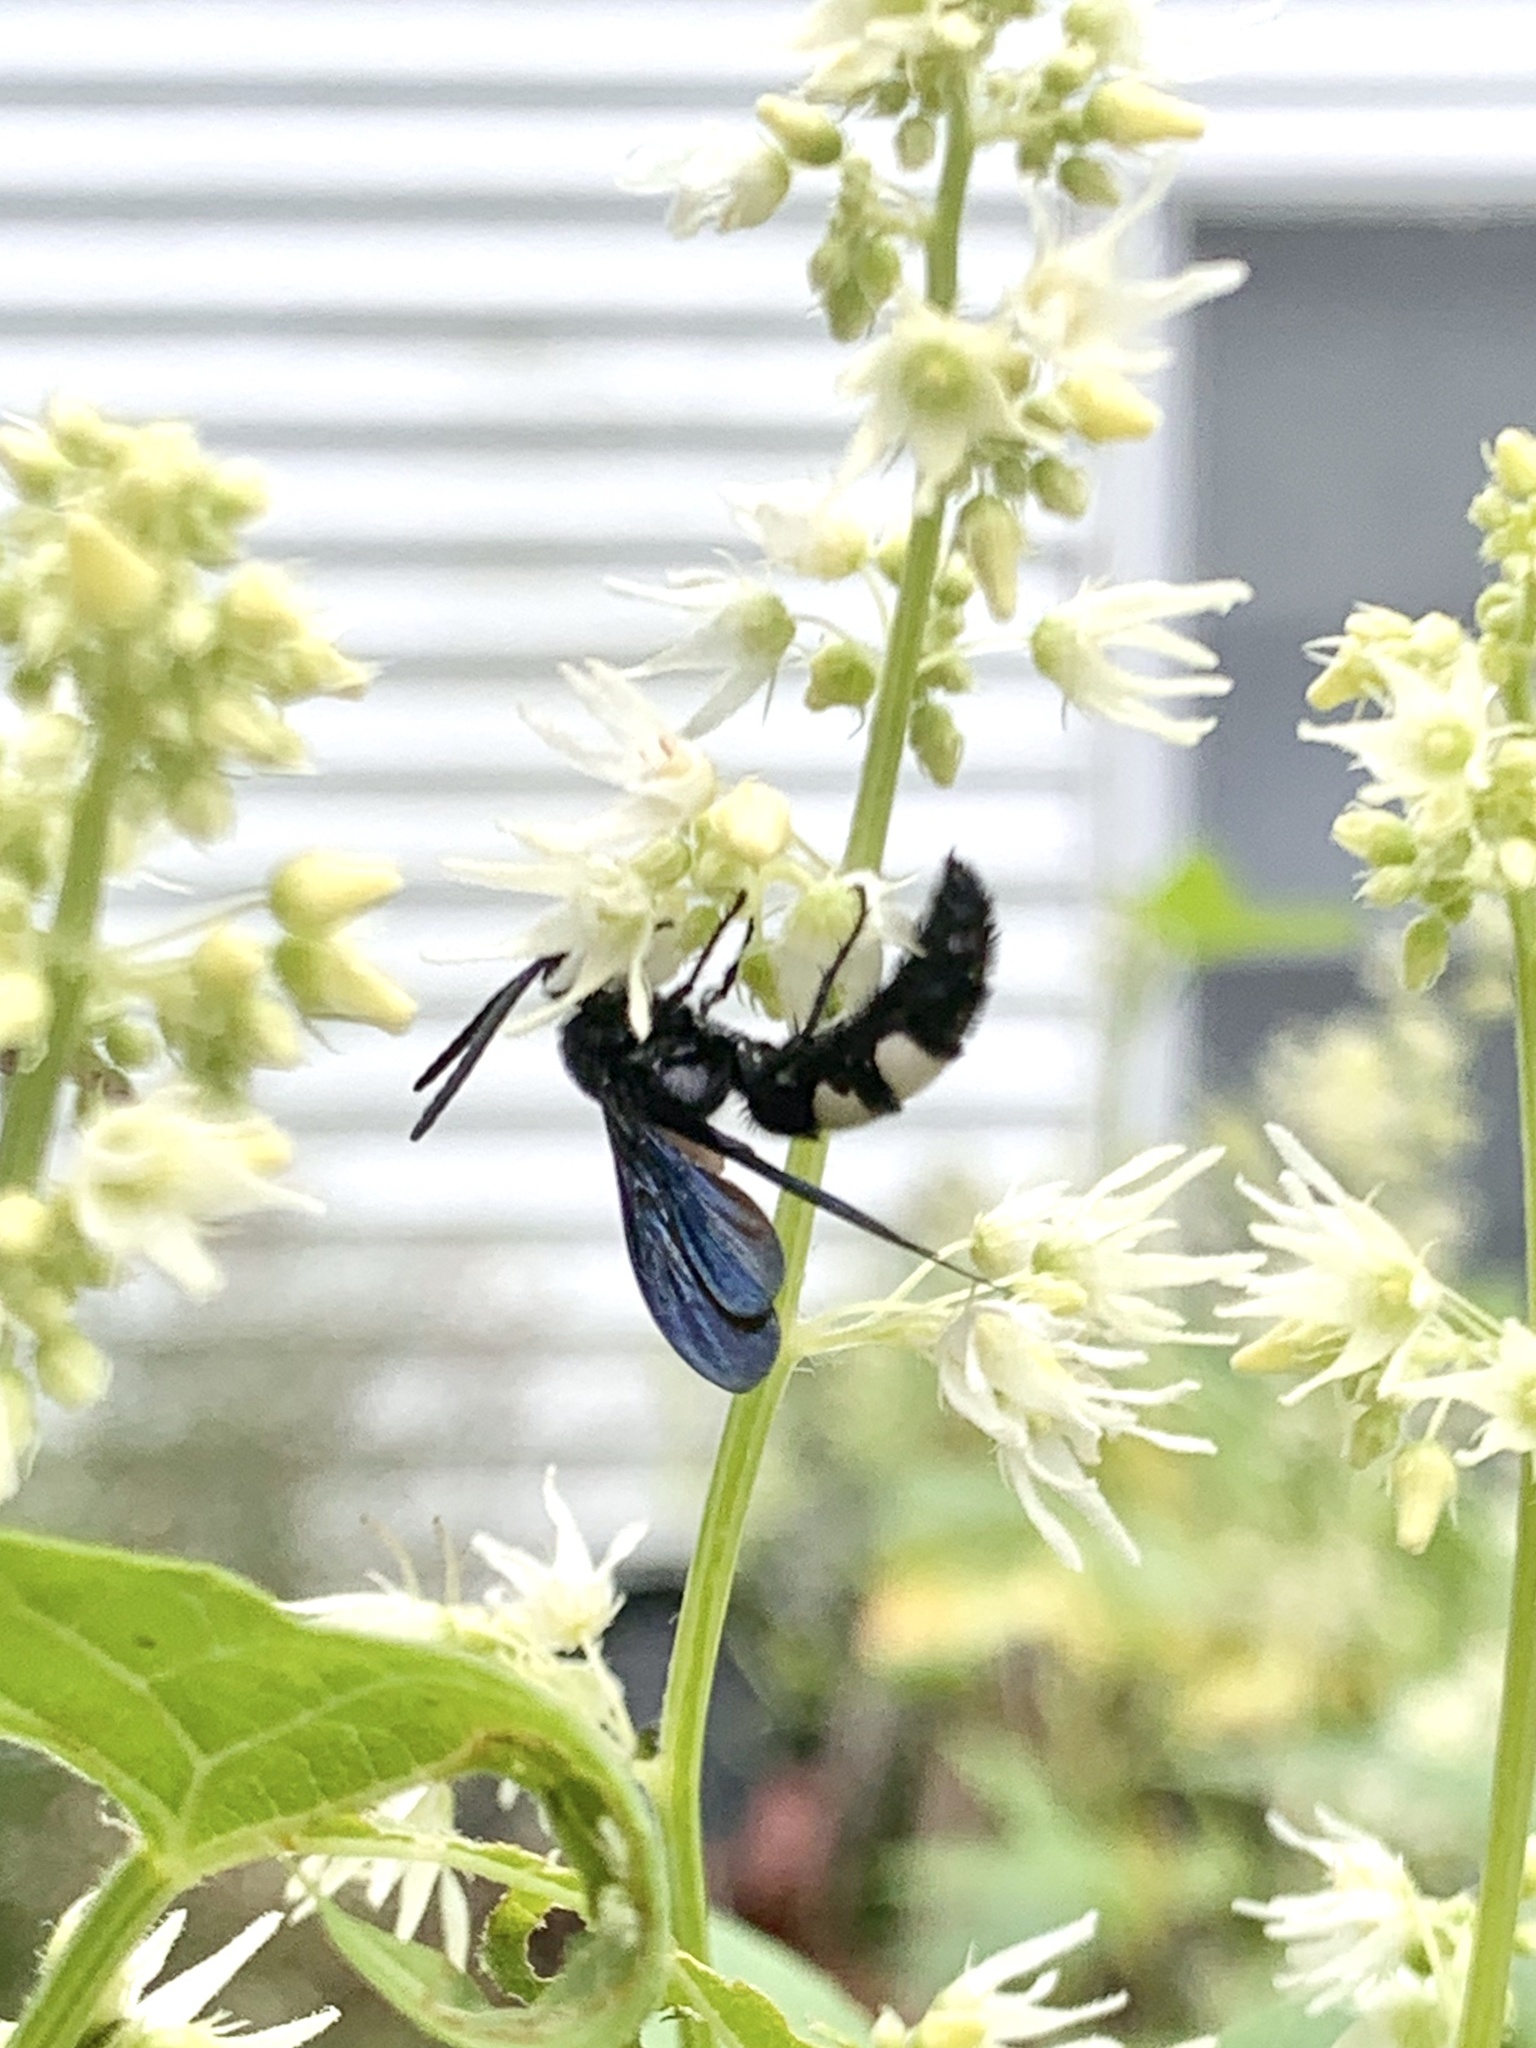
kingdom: Animalia
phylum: Arthropoda
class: Insecta
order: Hymenoptera
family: Scoliidae
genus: Scolia
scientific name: Scolia bicincta
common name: Double-banded scoliid wasp
